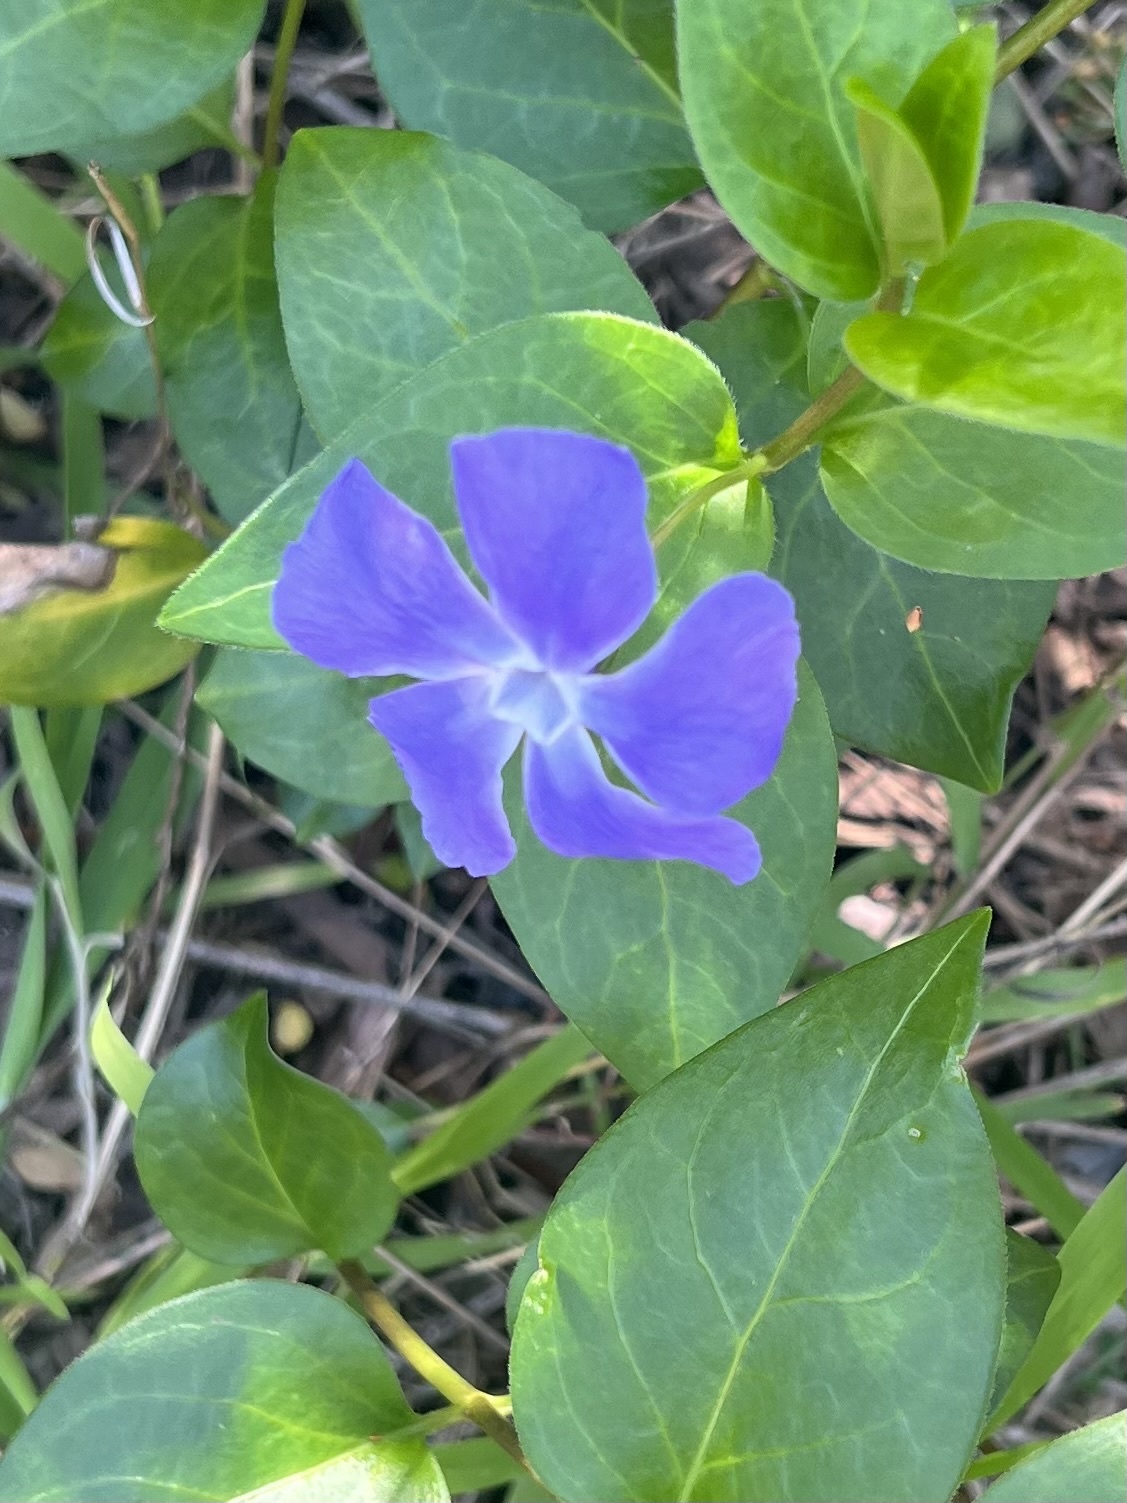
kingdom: Plantae
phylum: Tracheophyta
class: Magnoliopsida
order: Gentianales
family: Apocynaceae
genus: Vinca
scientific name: Vinca major
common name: Greater periwinkle
